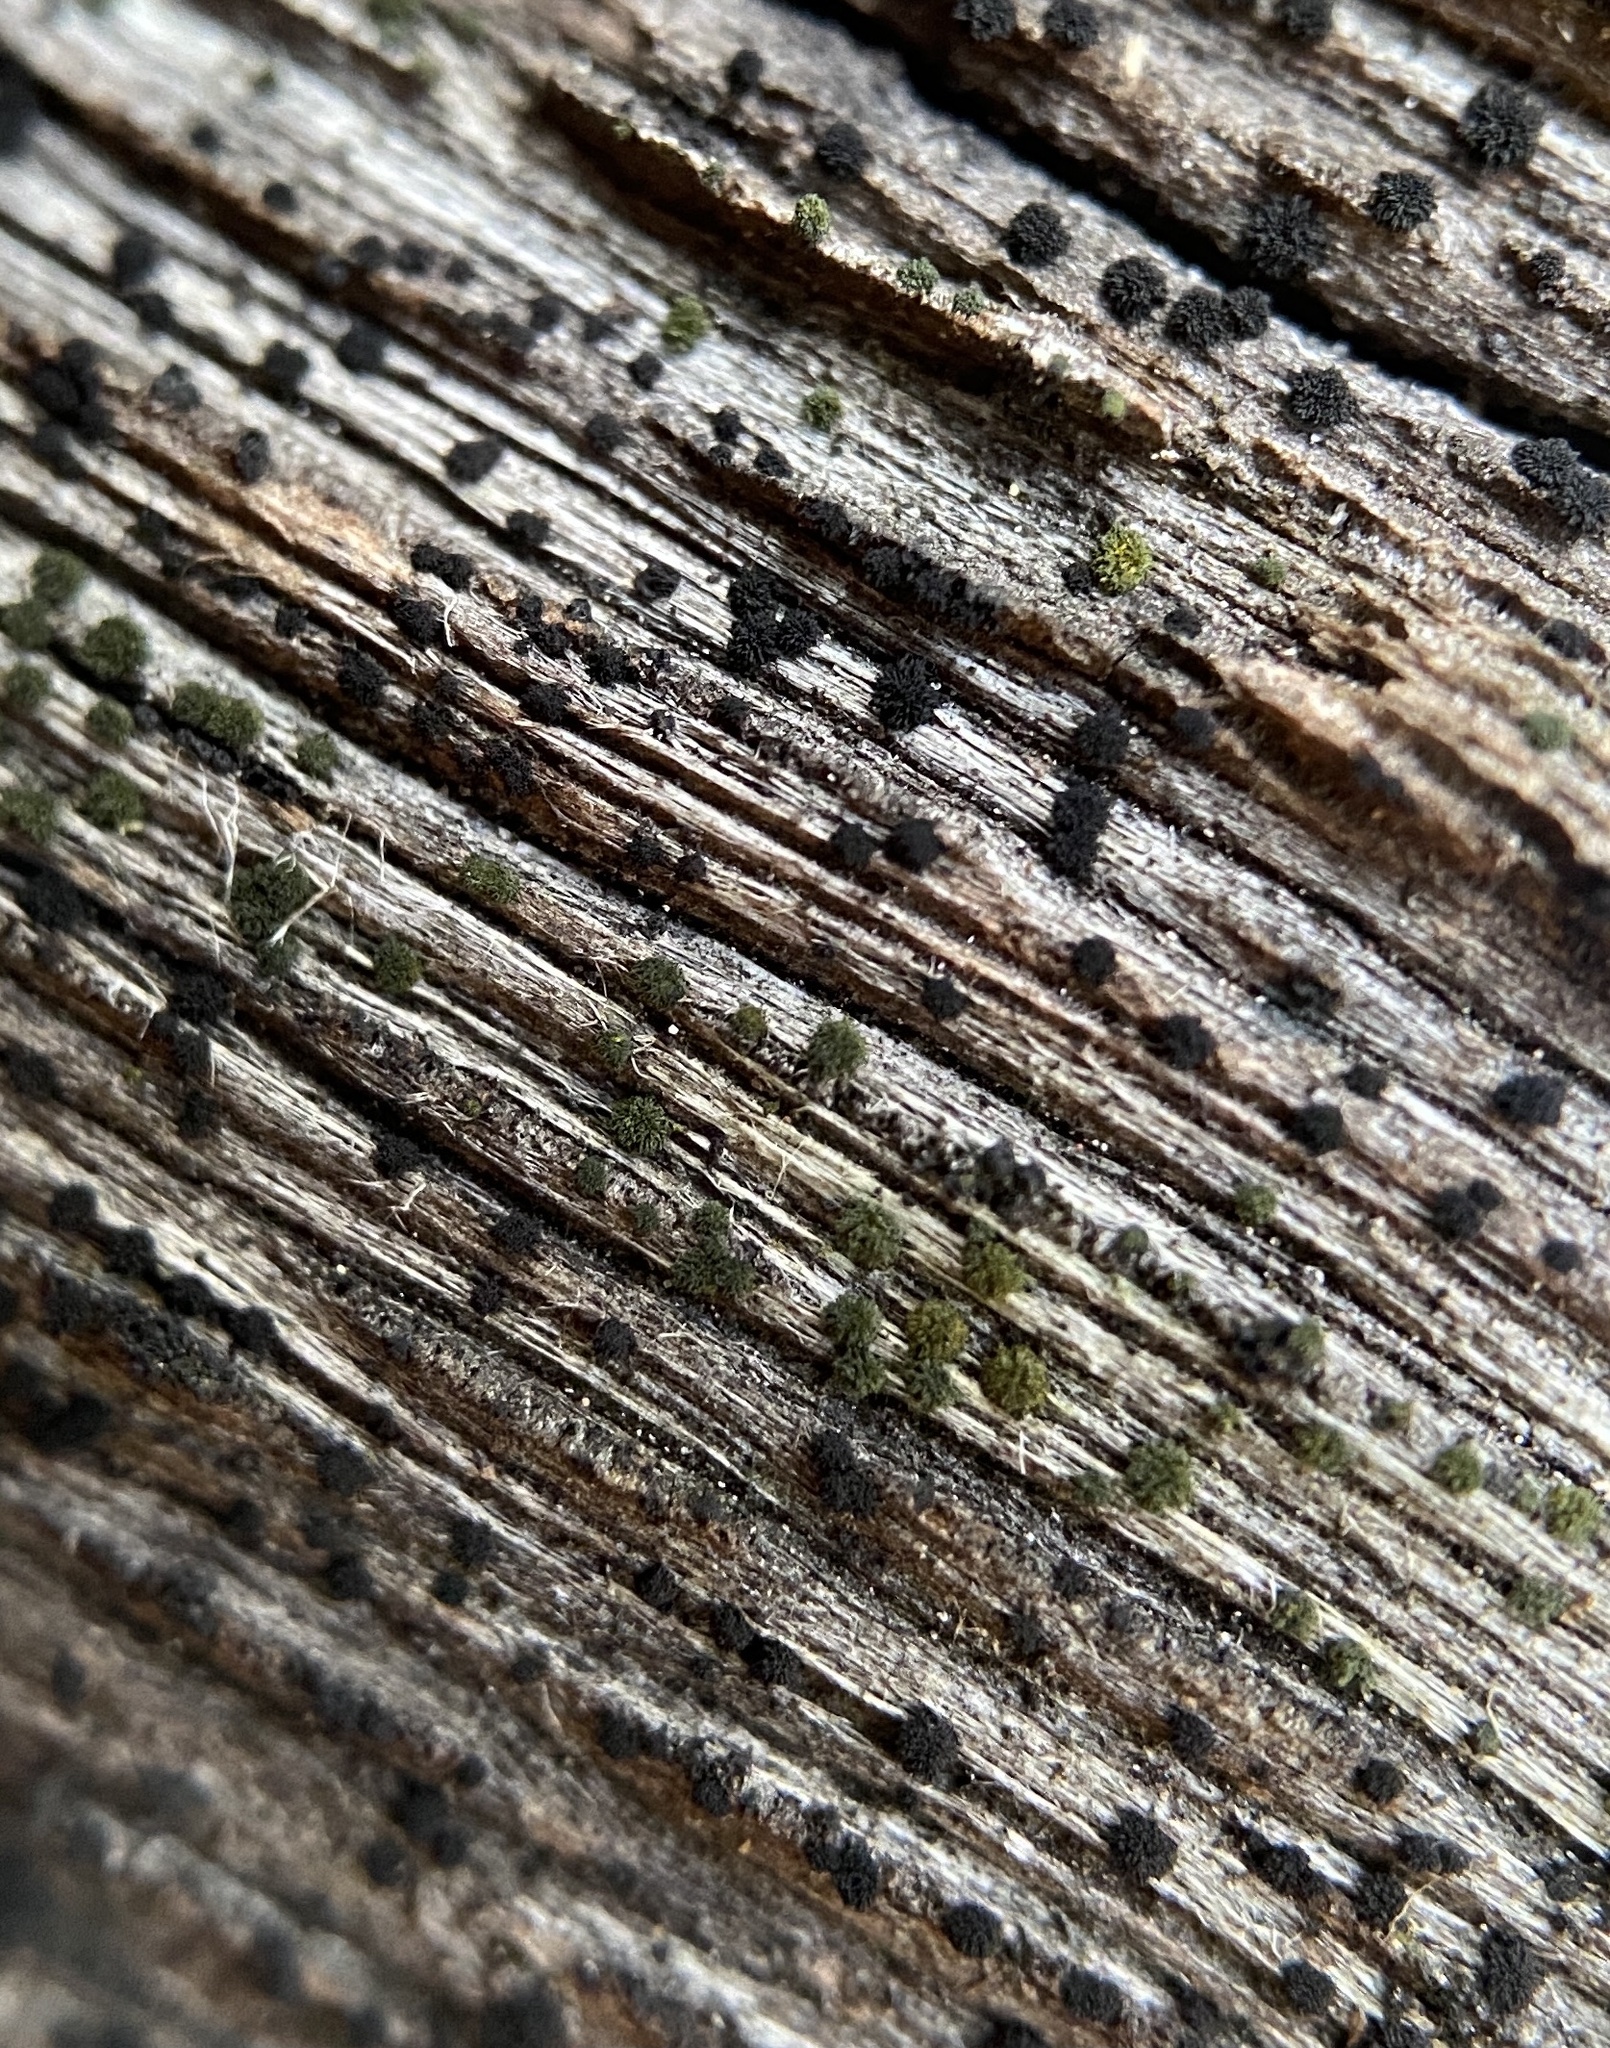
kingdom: Fungi
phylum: Ascomycota
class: Dothideomycetes
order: Pleosporales
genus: Berkleasmium
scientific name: Berkleasmium conglobatum
